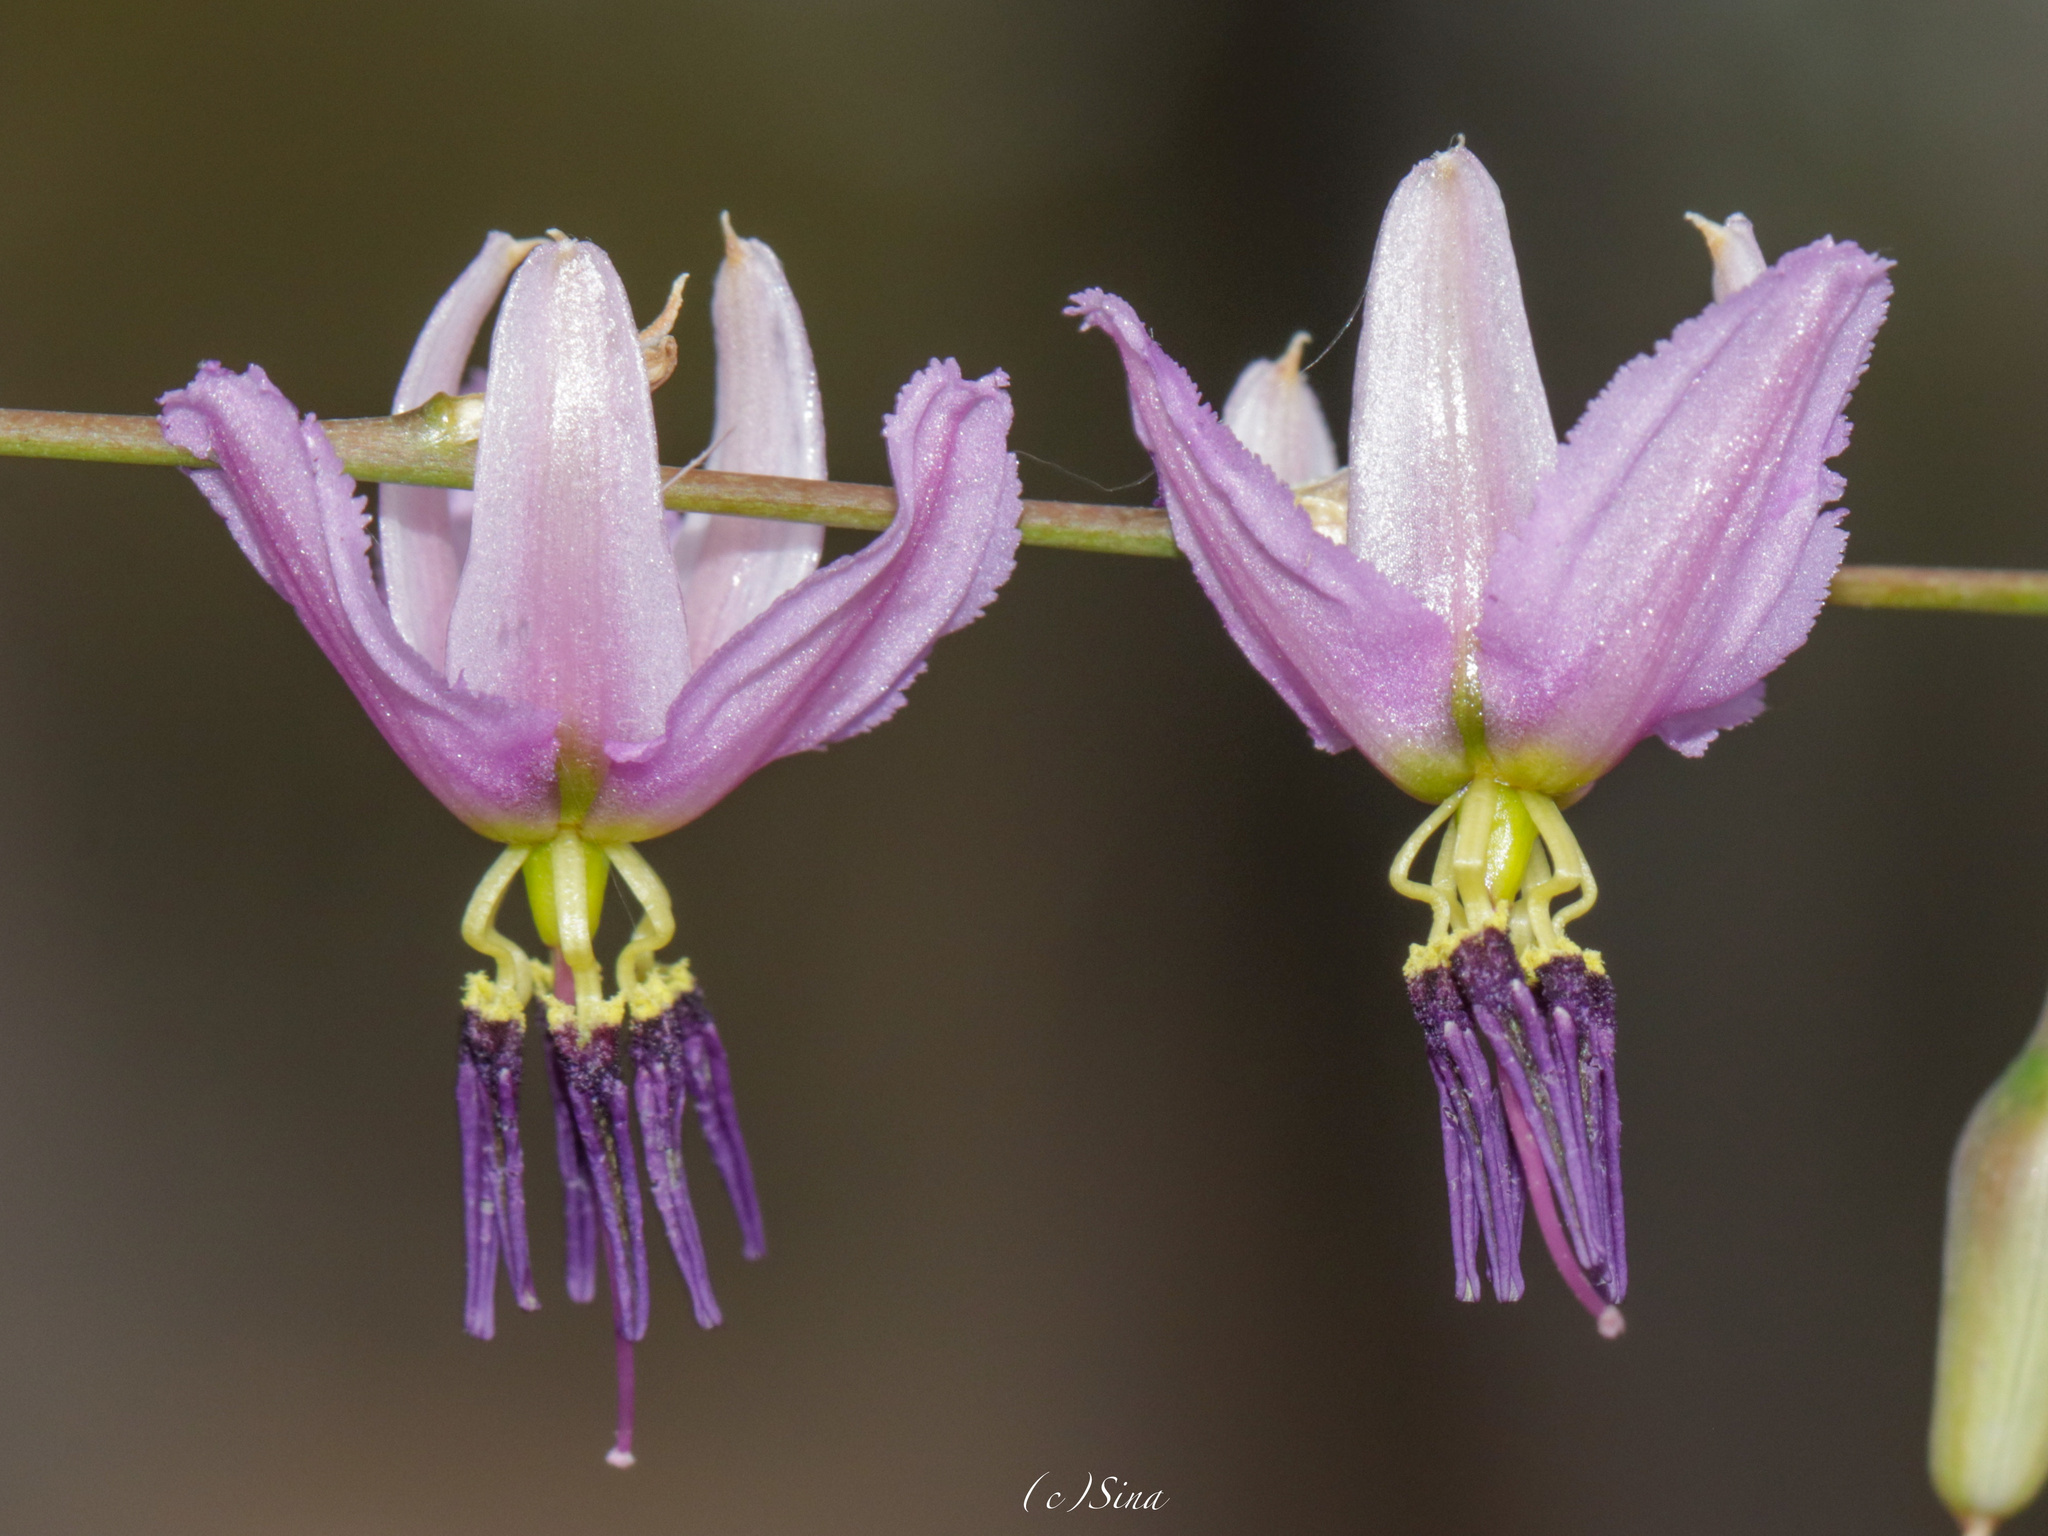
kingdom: Plantae
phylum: Tracheophyta
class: Liliopsida
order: Asparagales
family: Asparagaceae
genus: Dichopogon
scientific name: Dichopogon capillipes
